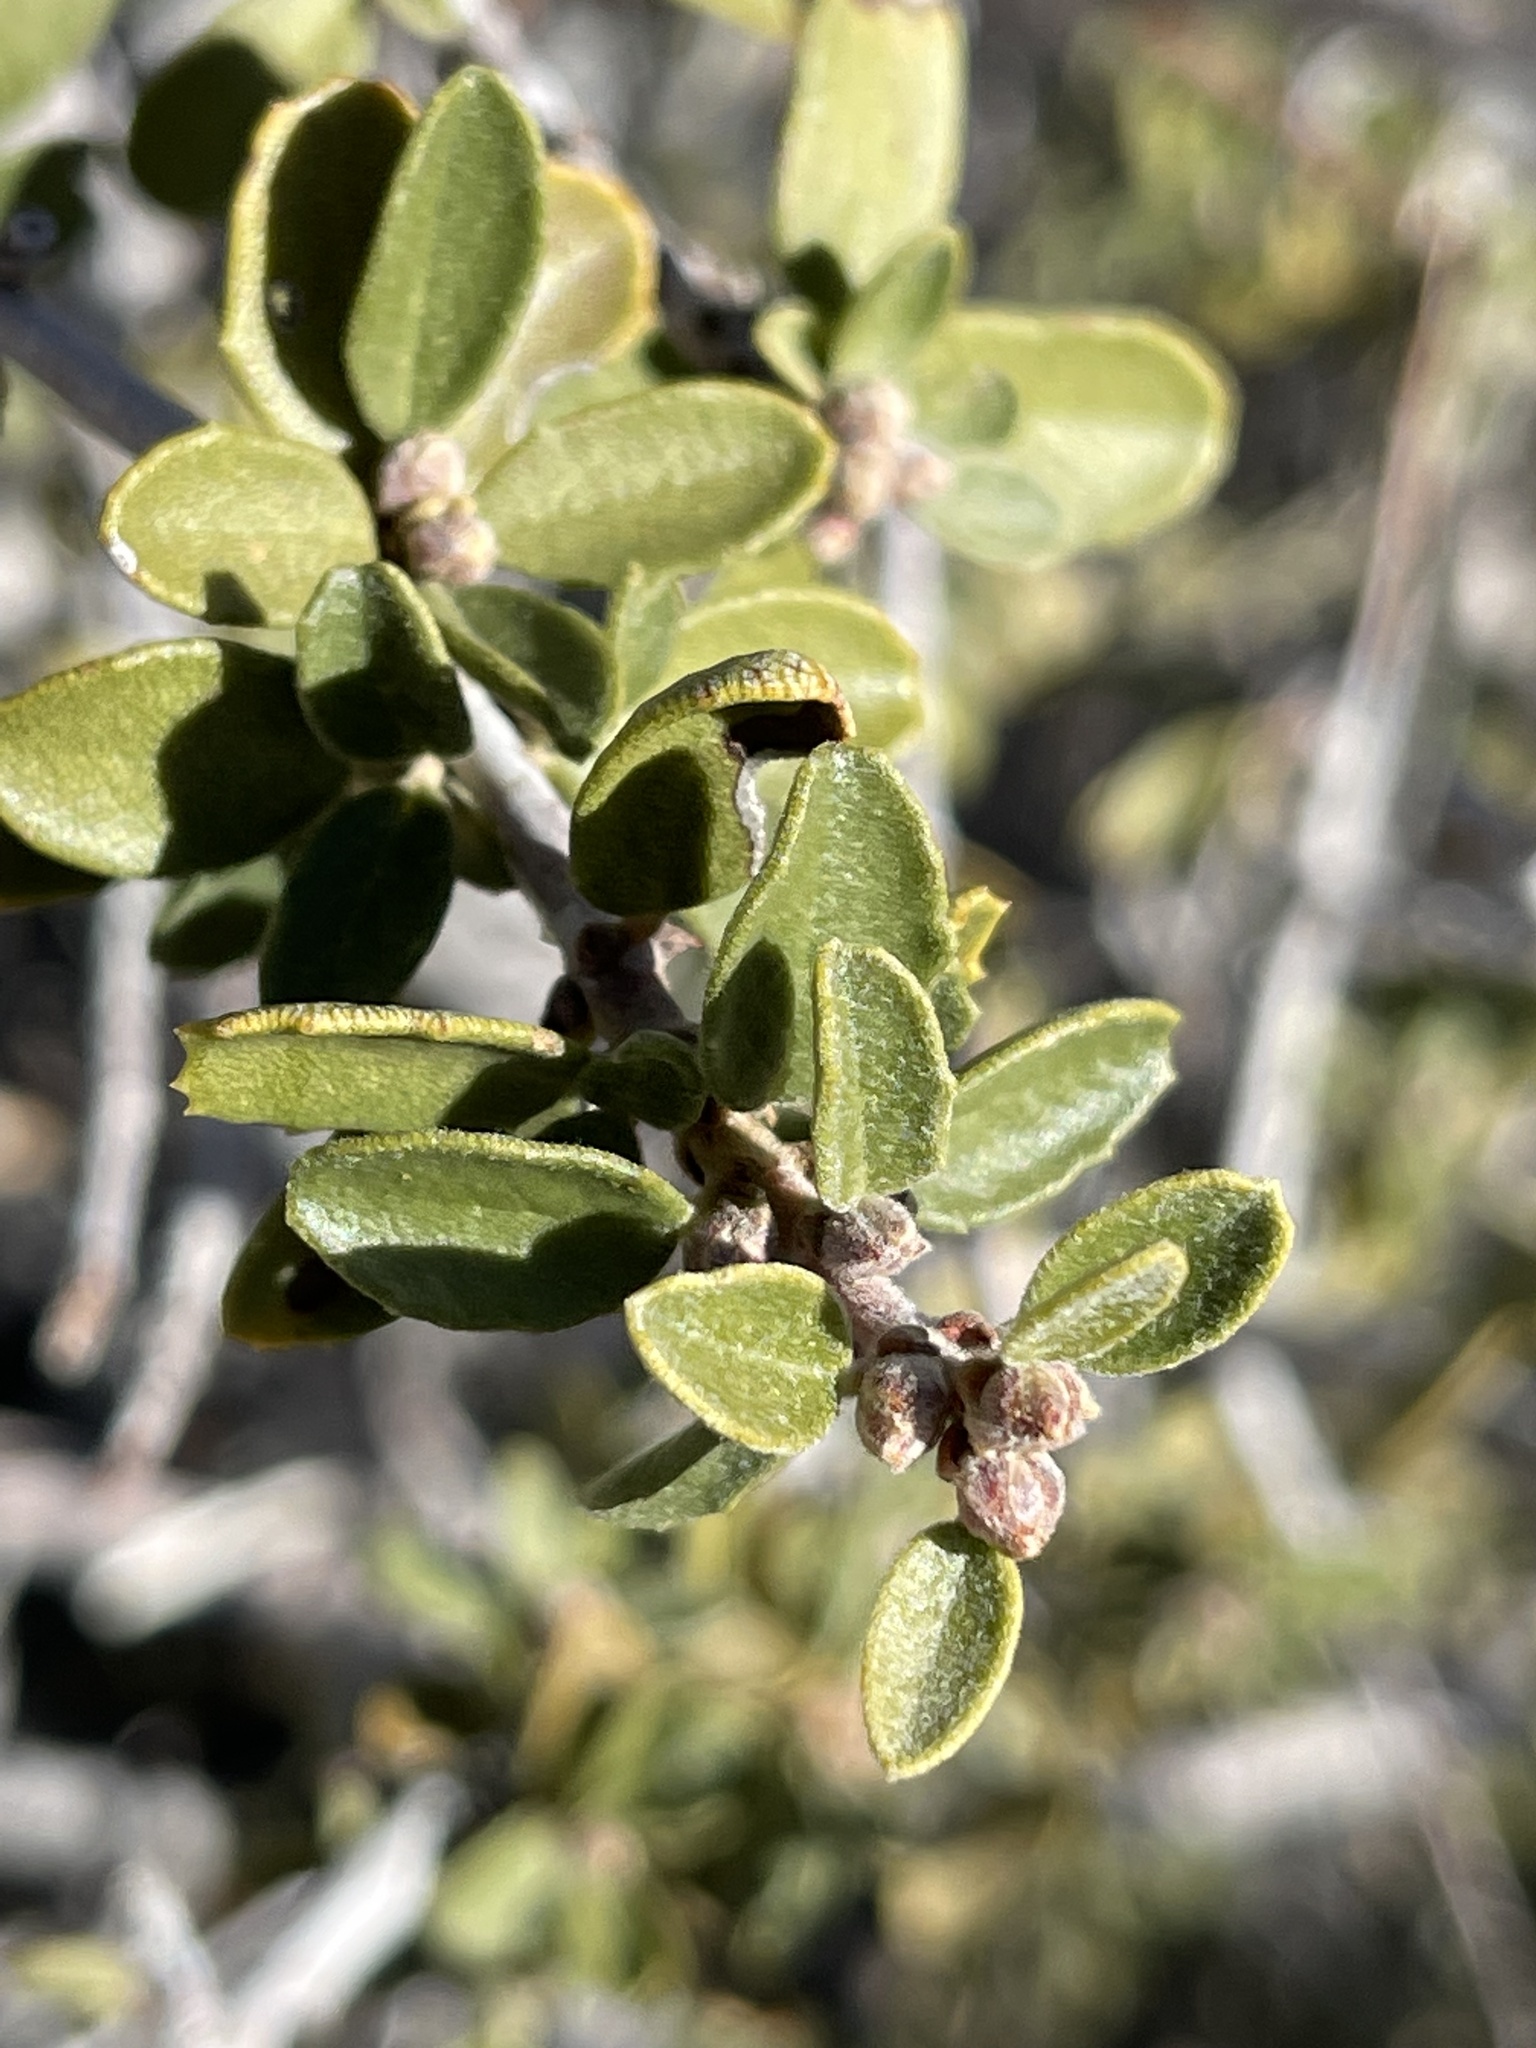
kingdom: Plantae
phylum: Tracheophyta
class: Magnoliopsida
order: Rosales
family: Rhamnaceae
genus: Ceanothus
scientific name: Ceanothus pauciflorus
